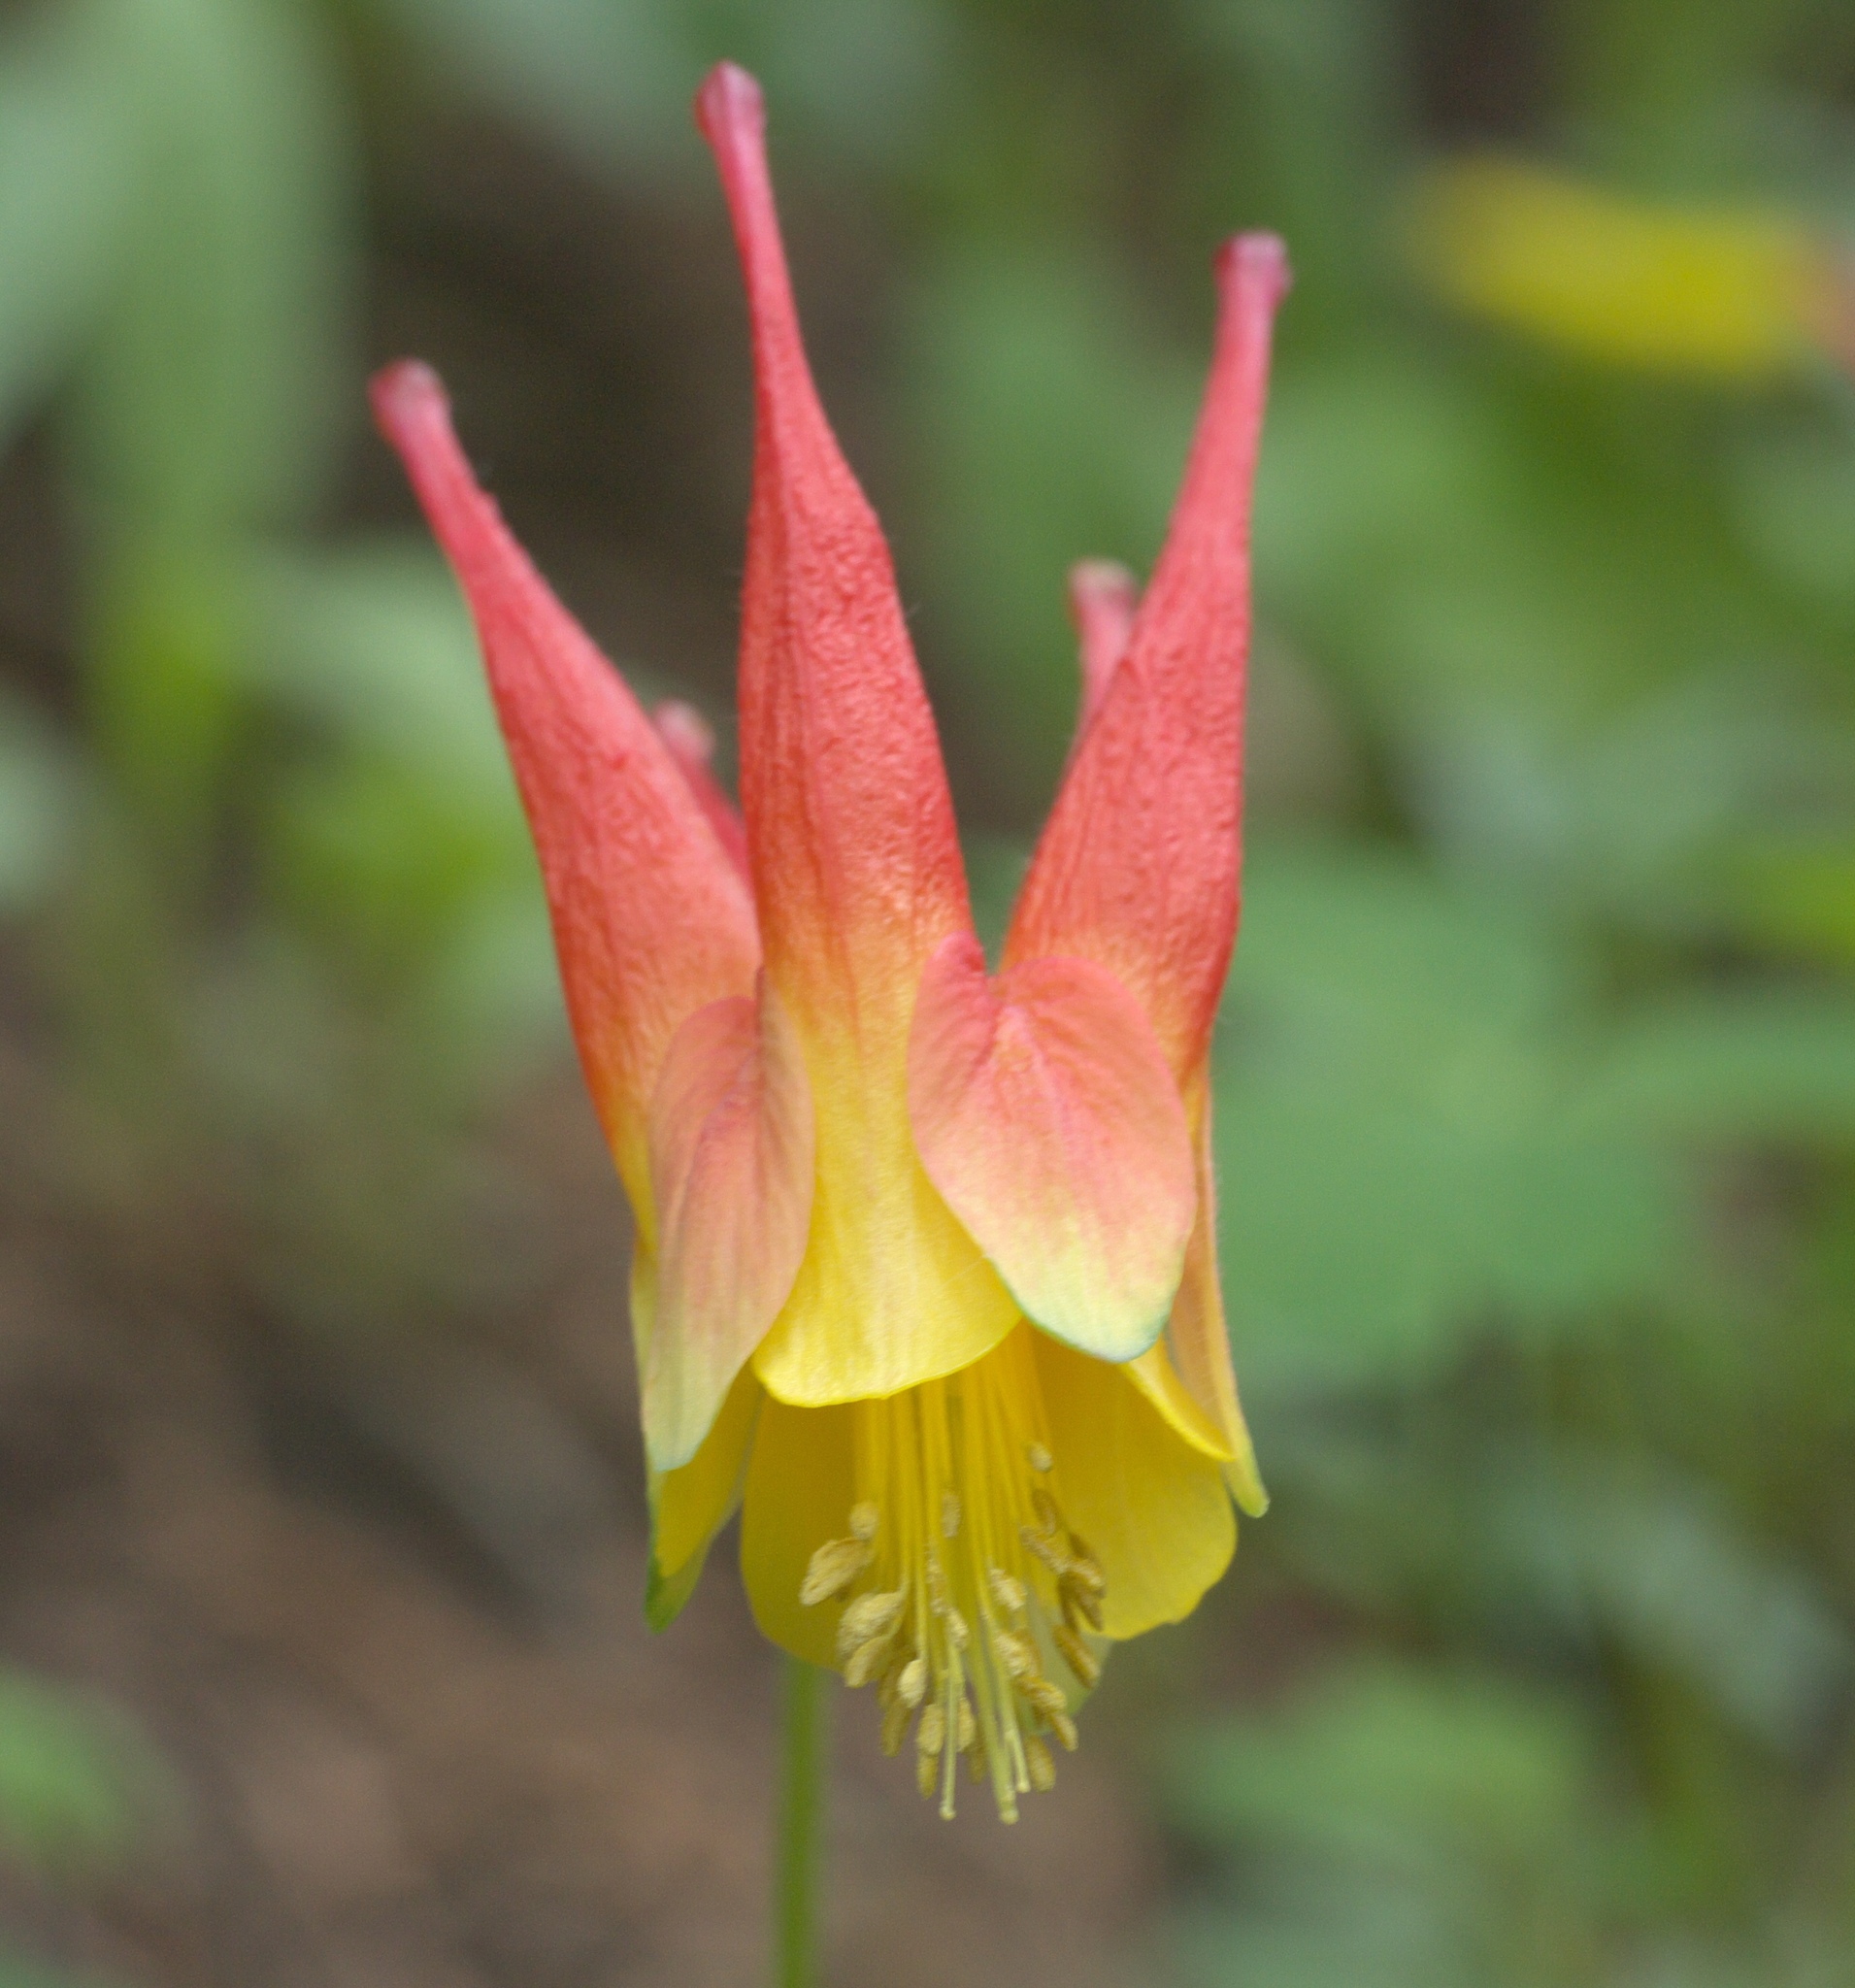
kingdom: Plantae
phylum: Tracheophyta
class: Magnoliopsida
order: Ranunculales
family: Ranunculaceae
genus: Aquilegia
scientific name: Aquilegia elegantula
